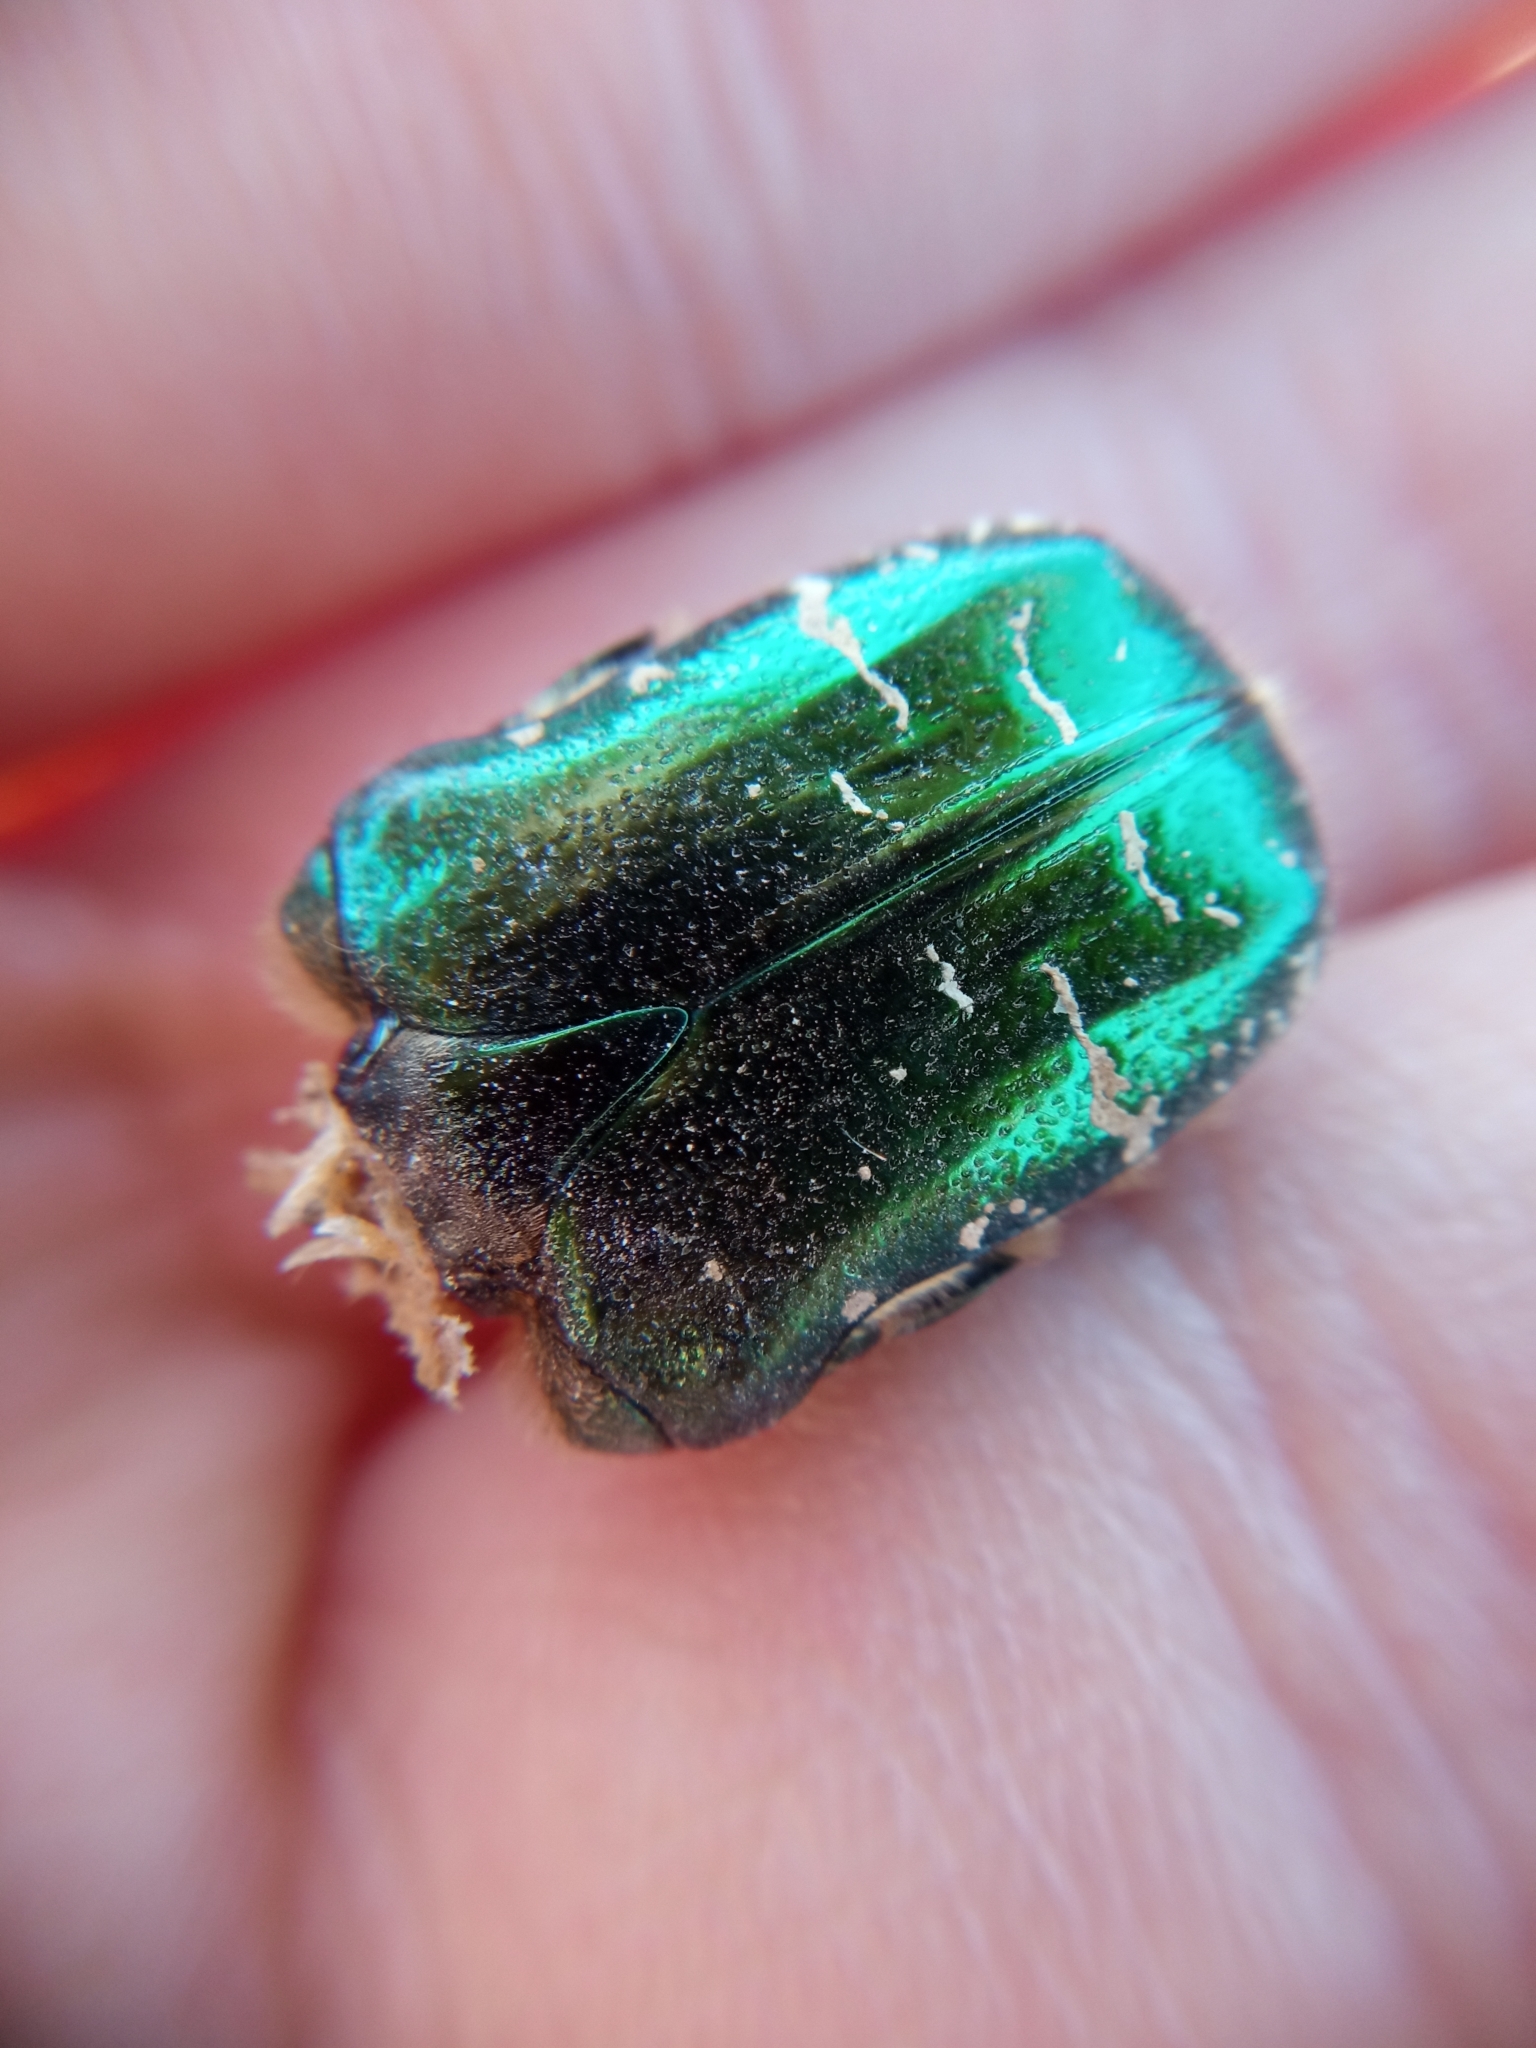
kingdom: Animalia
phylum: Arthropoda
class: Insecta
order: Coleoptera
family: Scarabaeidae
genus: Cetonia
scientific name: Cetonia aurata
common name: Rose chafer
